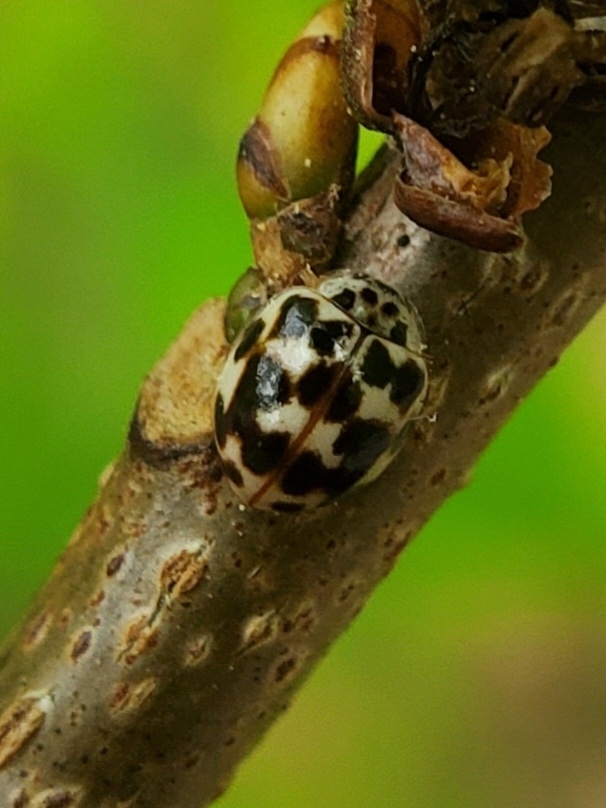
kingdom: Animalia
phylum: Arthropoda
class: Insecta
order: Coleoptera
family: Coccinellidae
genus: Psyllobora
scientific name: Psyllobora vigintimaculata
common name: Ladybird beetle
